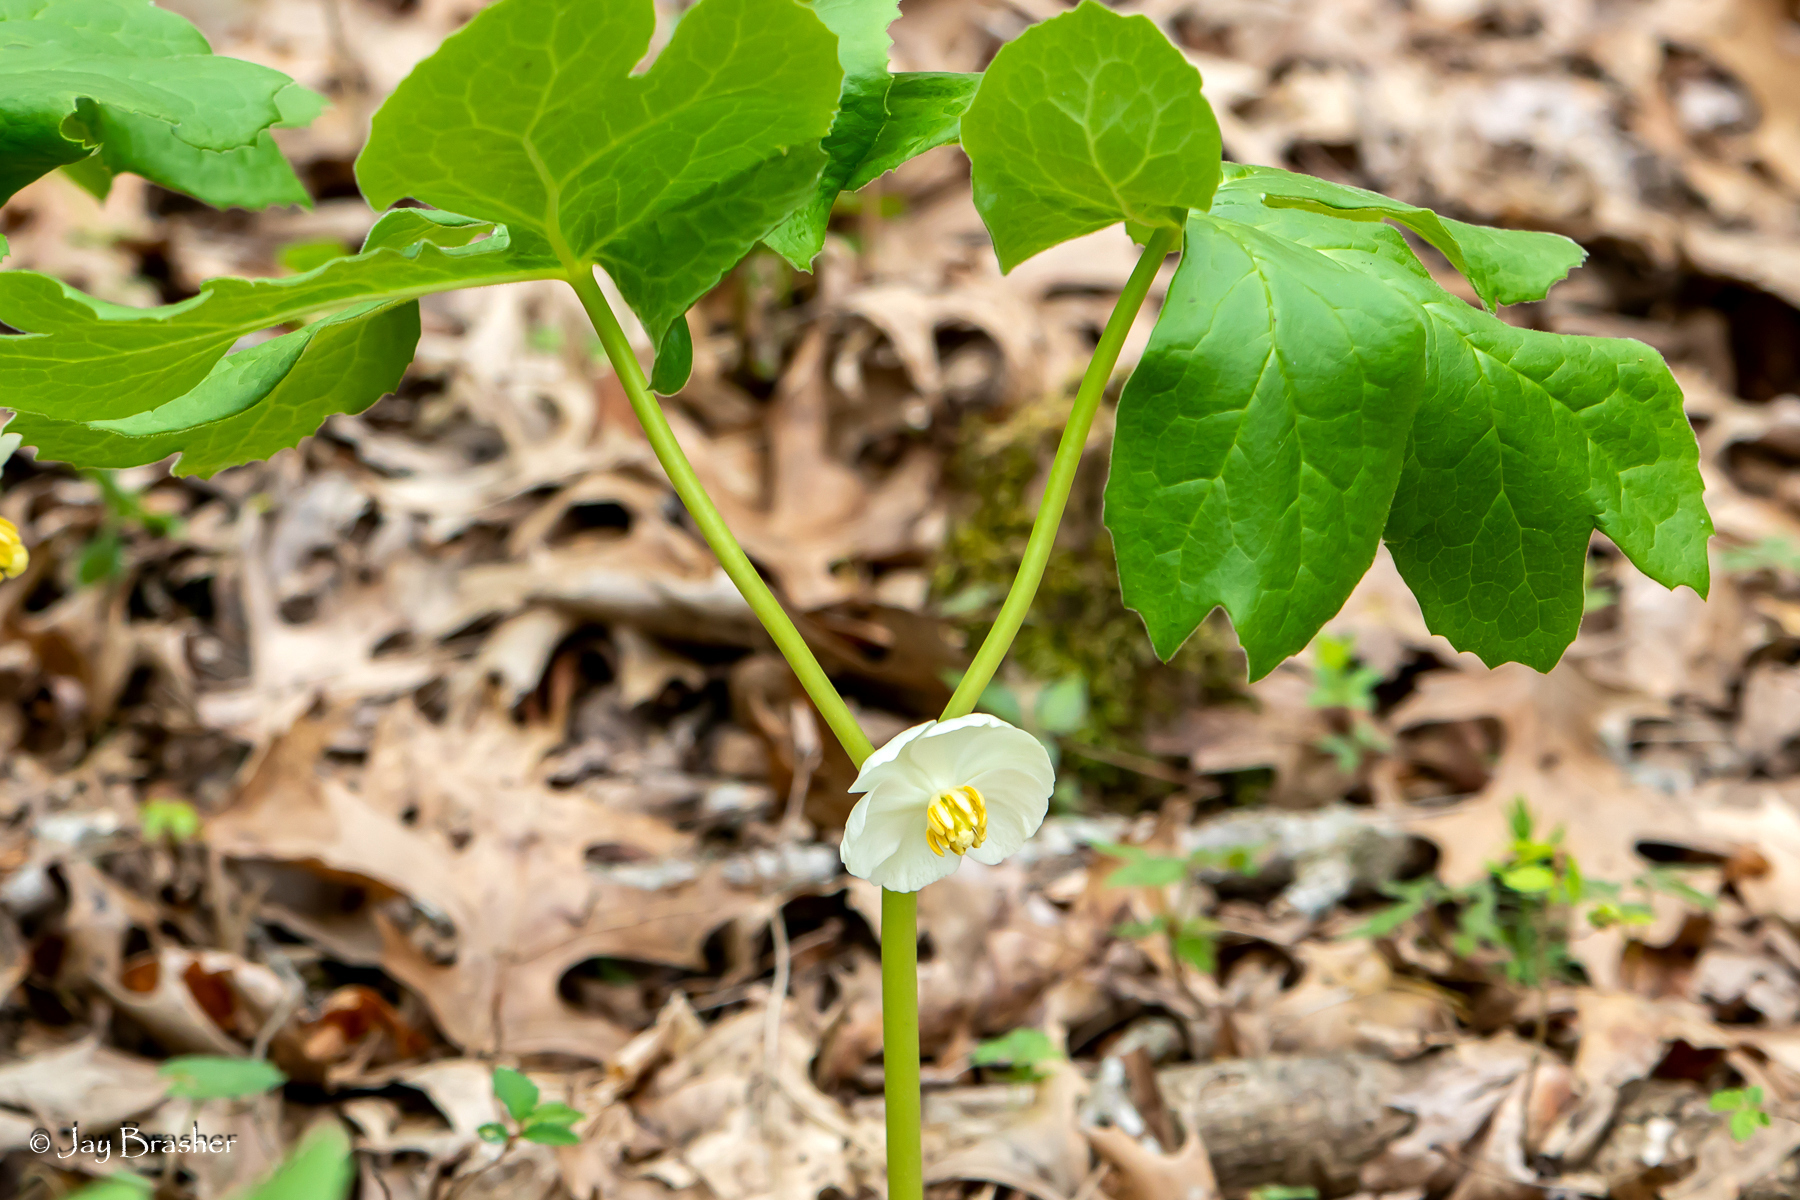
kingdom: Plantae
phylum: Tracheophyta
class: Magnoliopsida
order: Ranunculales
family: Berberidaceae
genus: Podophyllum
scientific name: Podophyllum peltatum
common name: Wild mandrake
